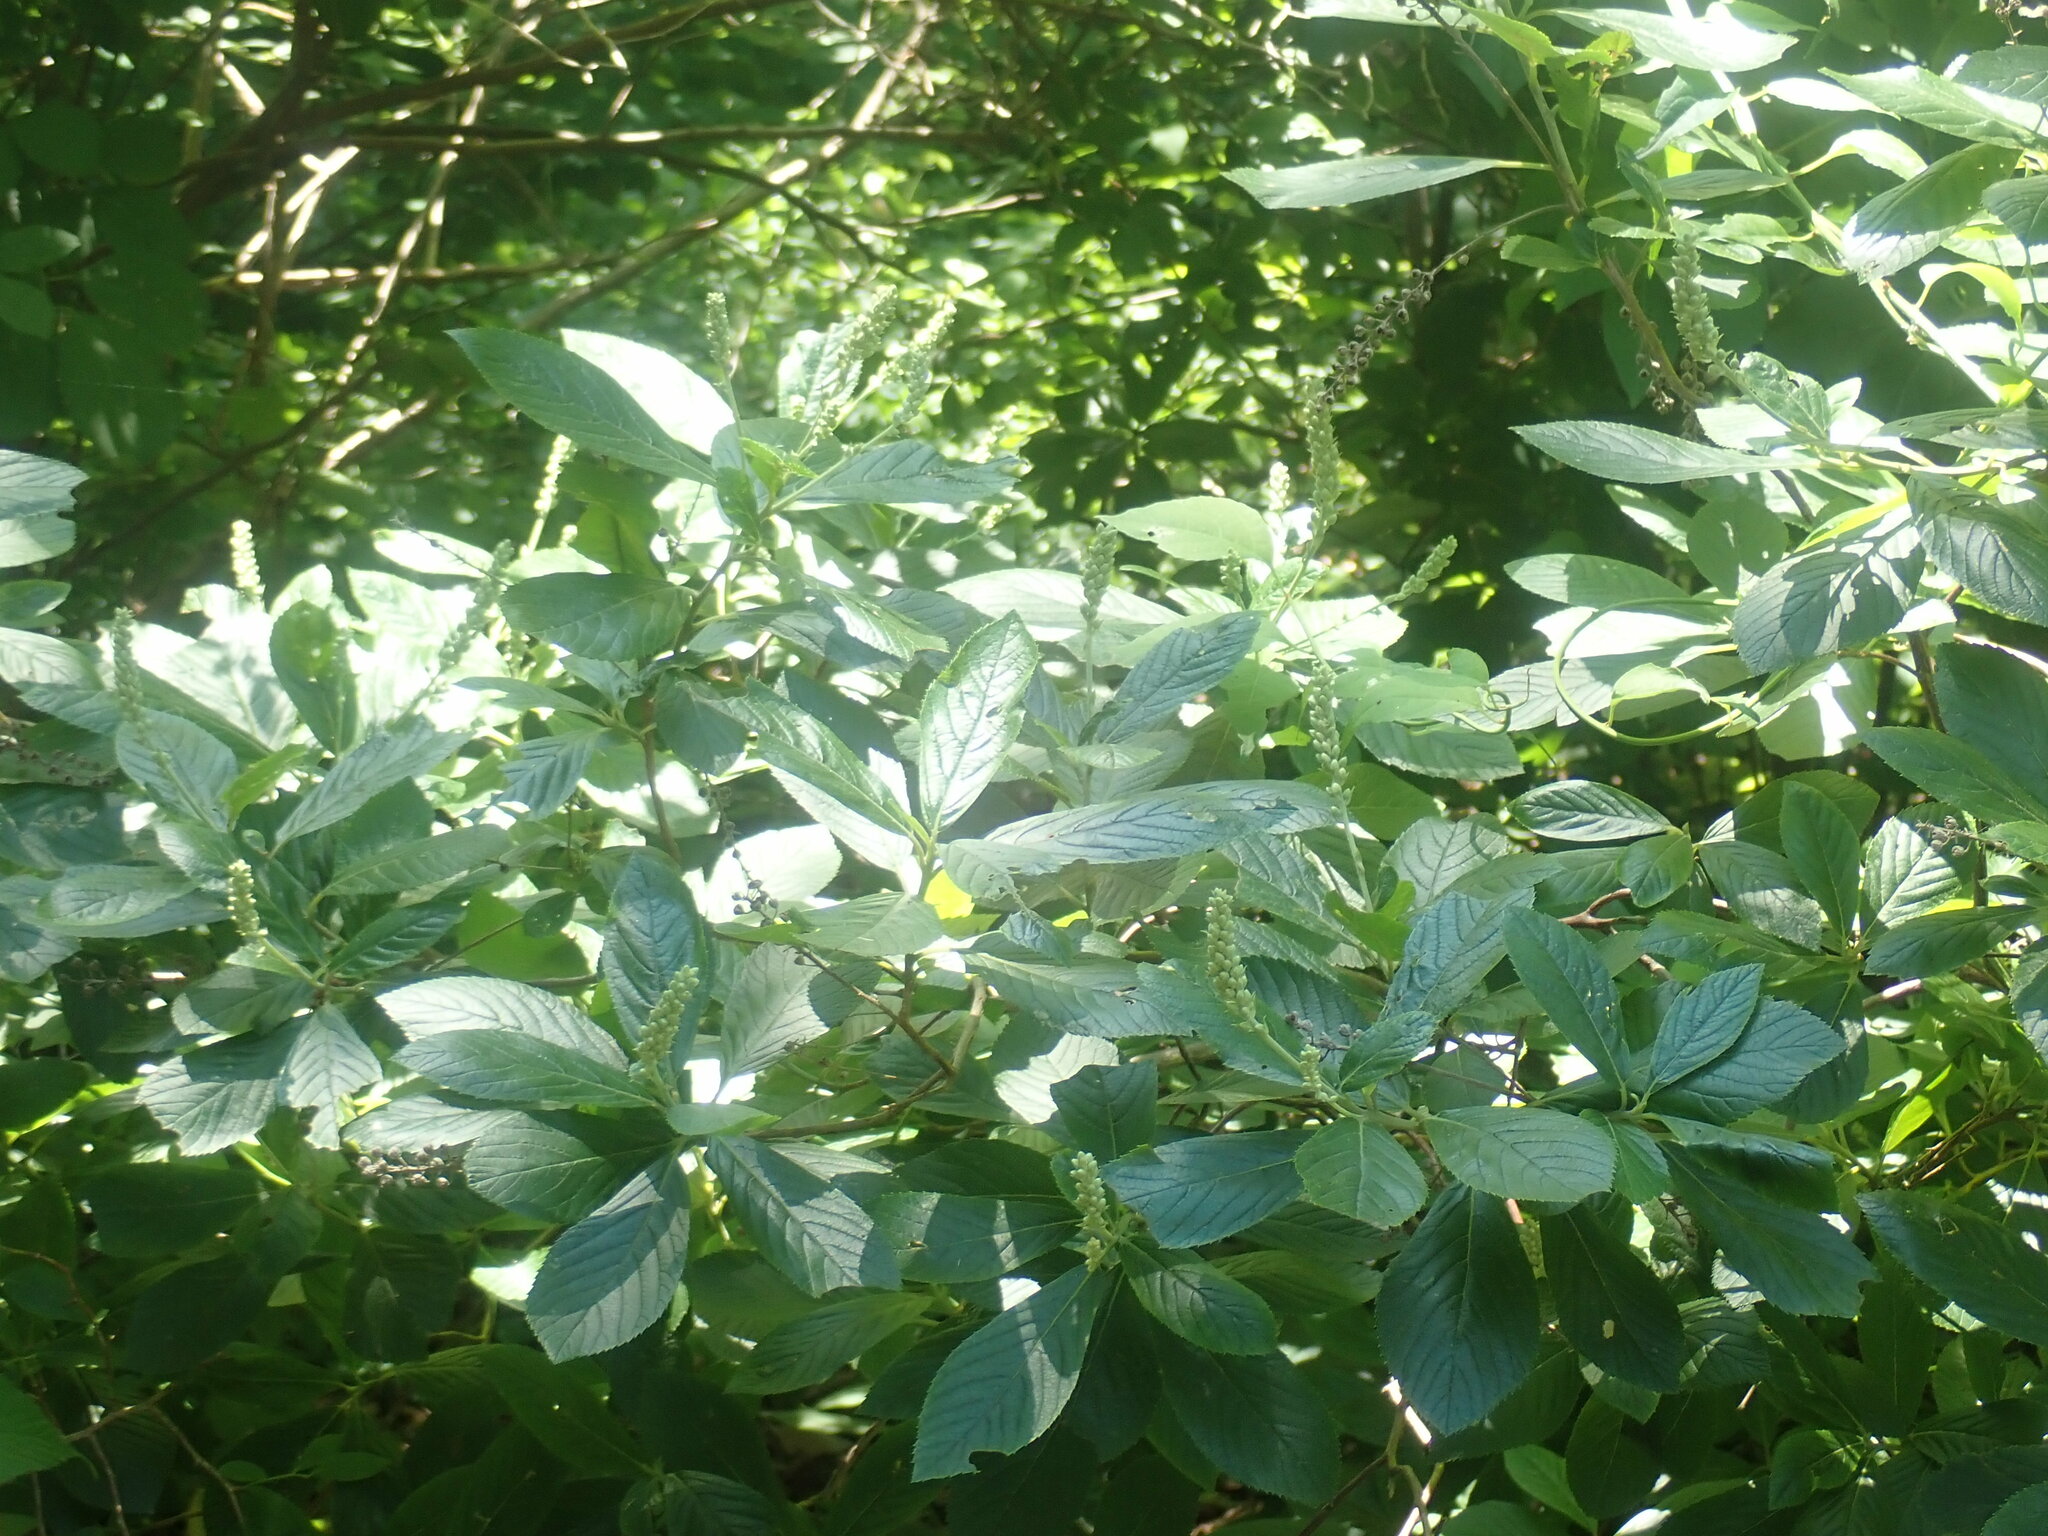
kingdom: Plantae
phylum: Tracheophyta
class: Magnoliopsida
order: Ericales
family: Clethraceae
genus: Clethra
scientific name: Clethra alnifolia
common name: Sweet pepperbush
